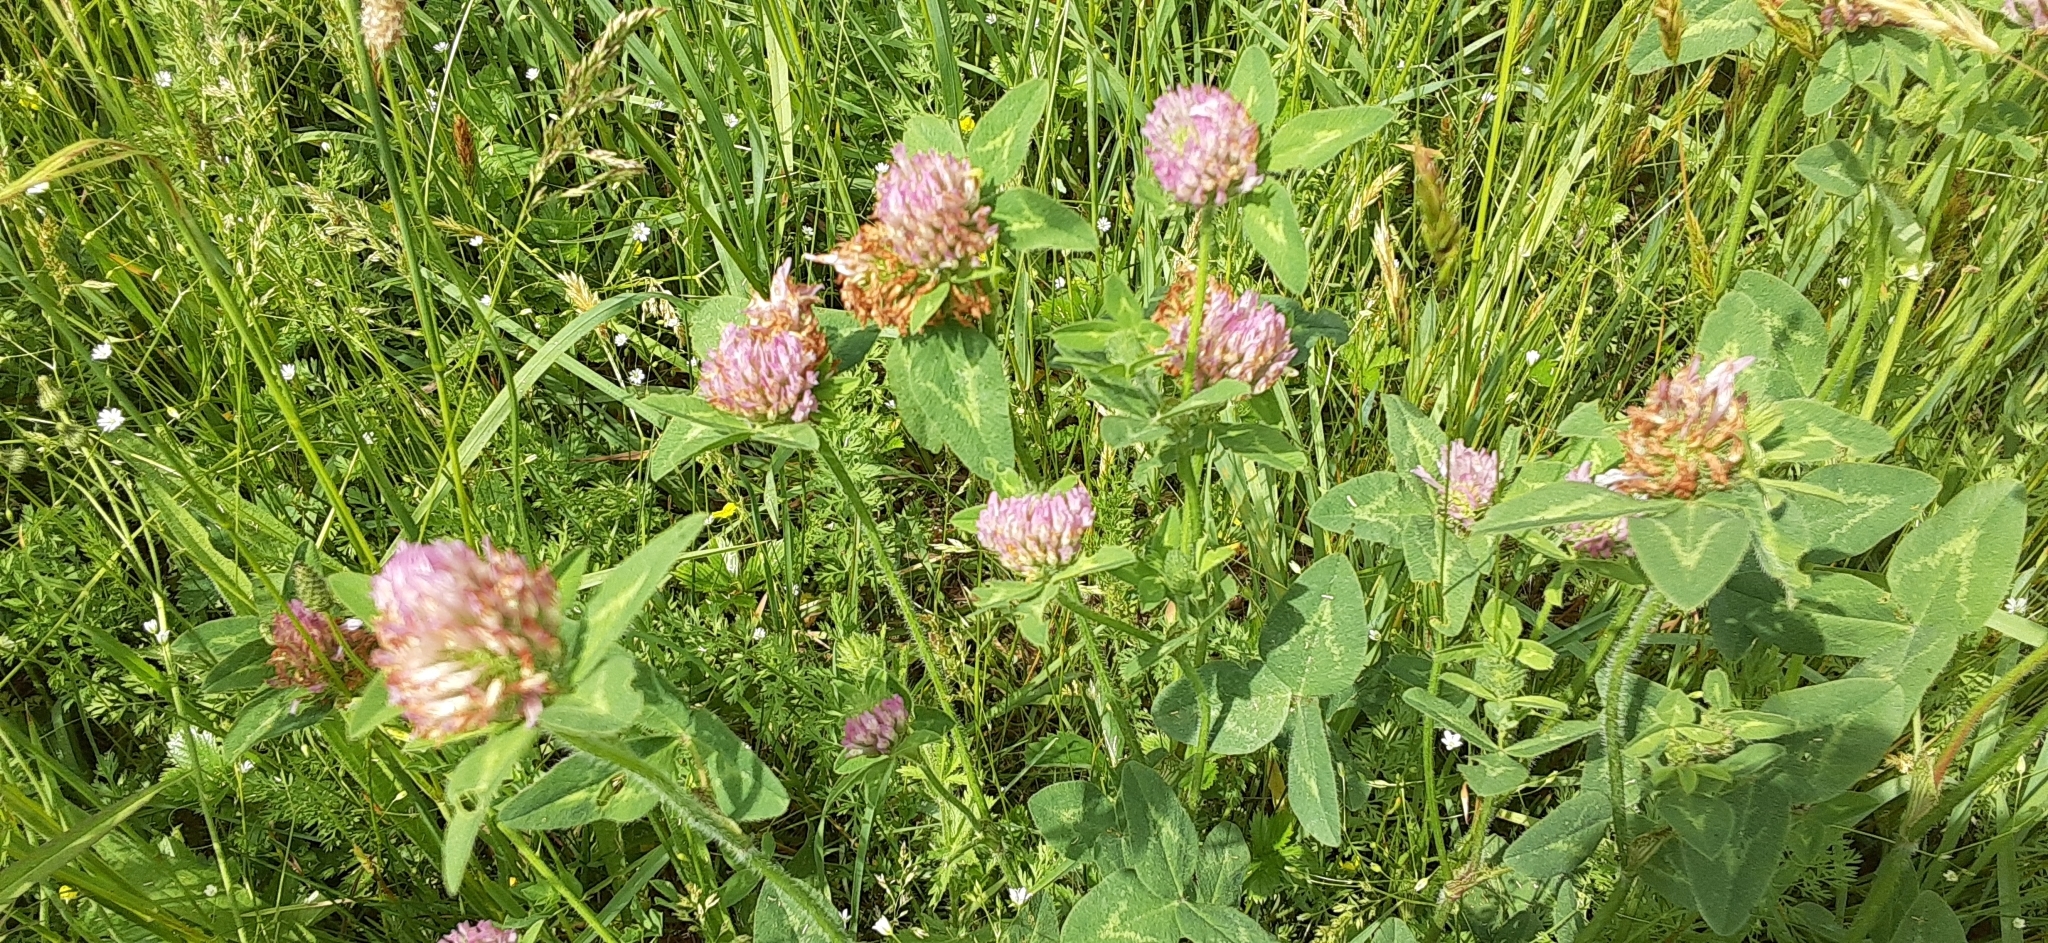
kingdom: Plantae
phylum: Tracheophyta
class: Magnoliopsida
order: Fabales
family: Fabaceae
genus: Trifolium
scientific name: Trifolium pratense
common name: Red clover
